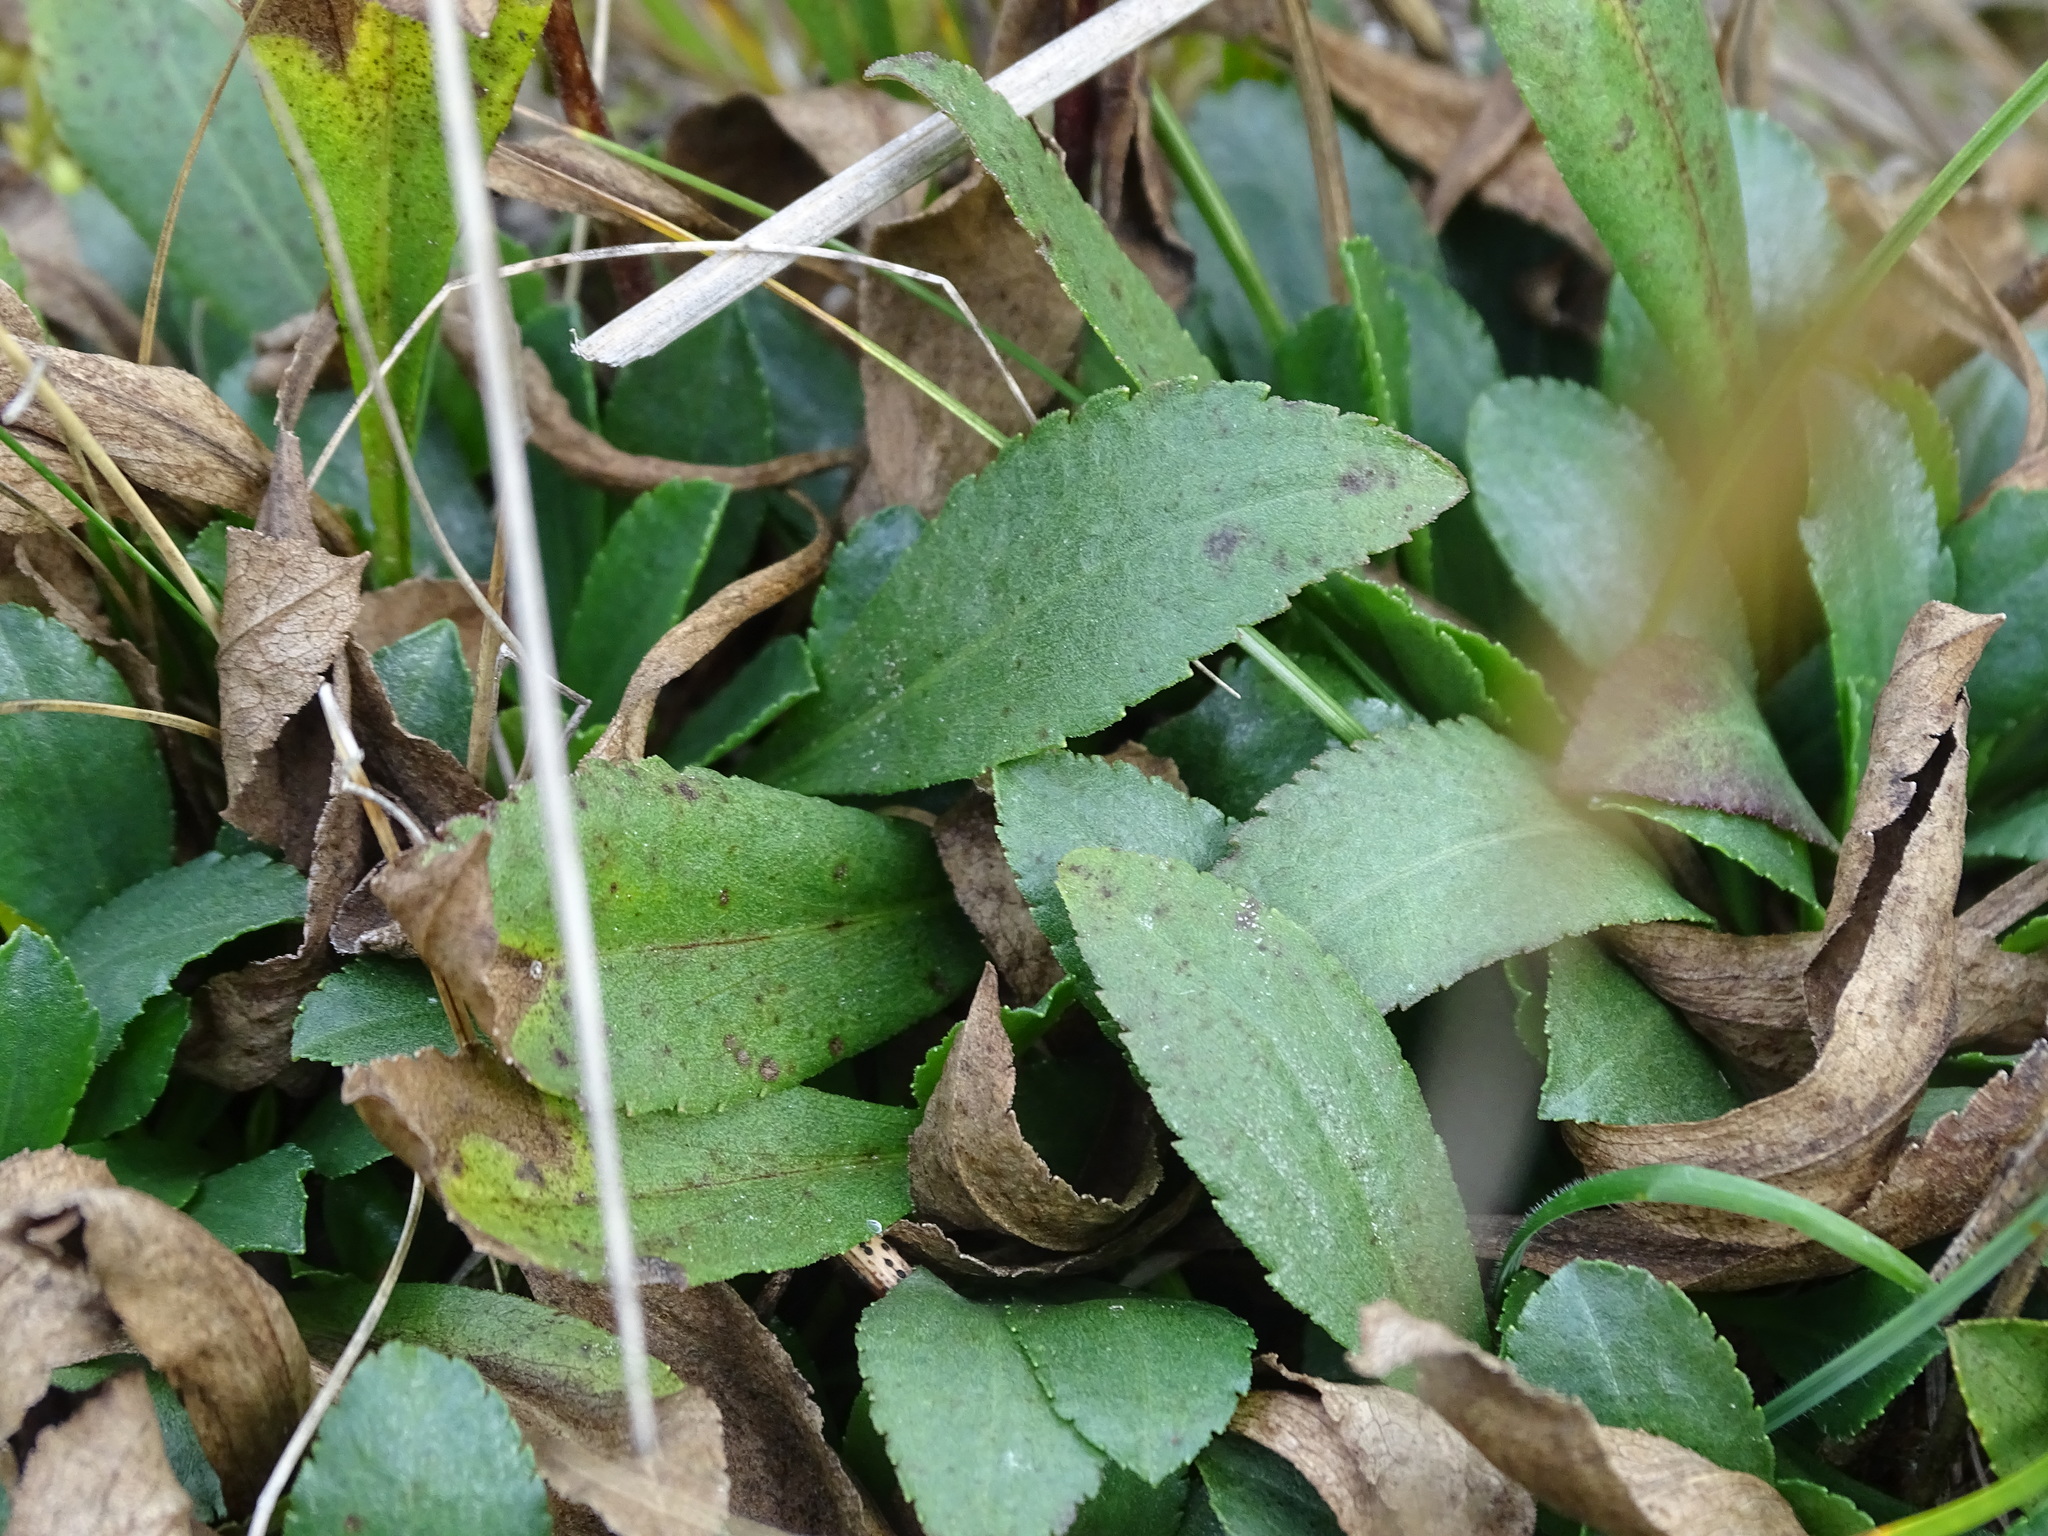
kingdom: Plantae
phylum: Tracheophyta
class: Magnoliopsida
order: Asterales
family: Asteraceae
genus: Solidago
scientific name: Solidago glutinosa
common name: Decumbent goldenrod
